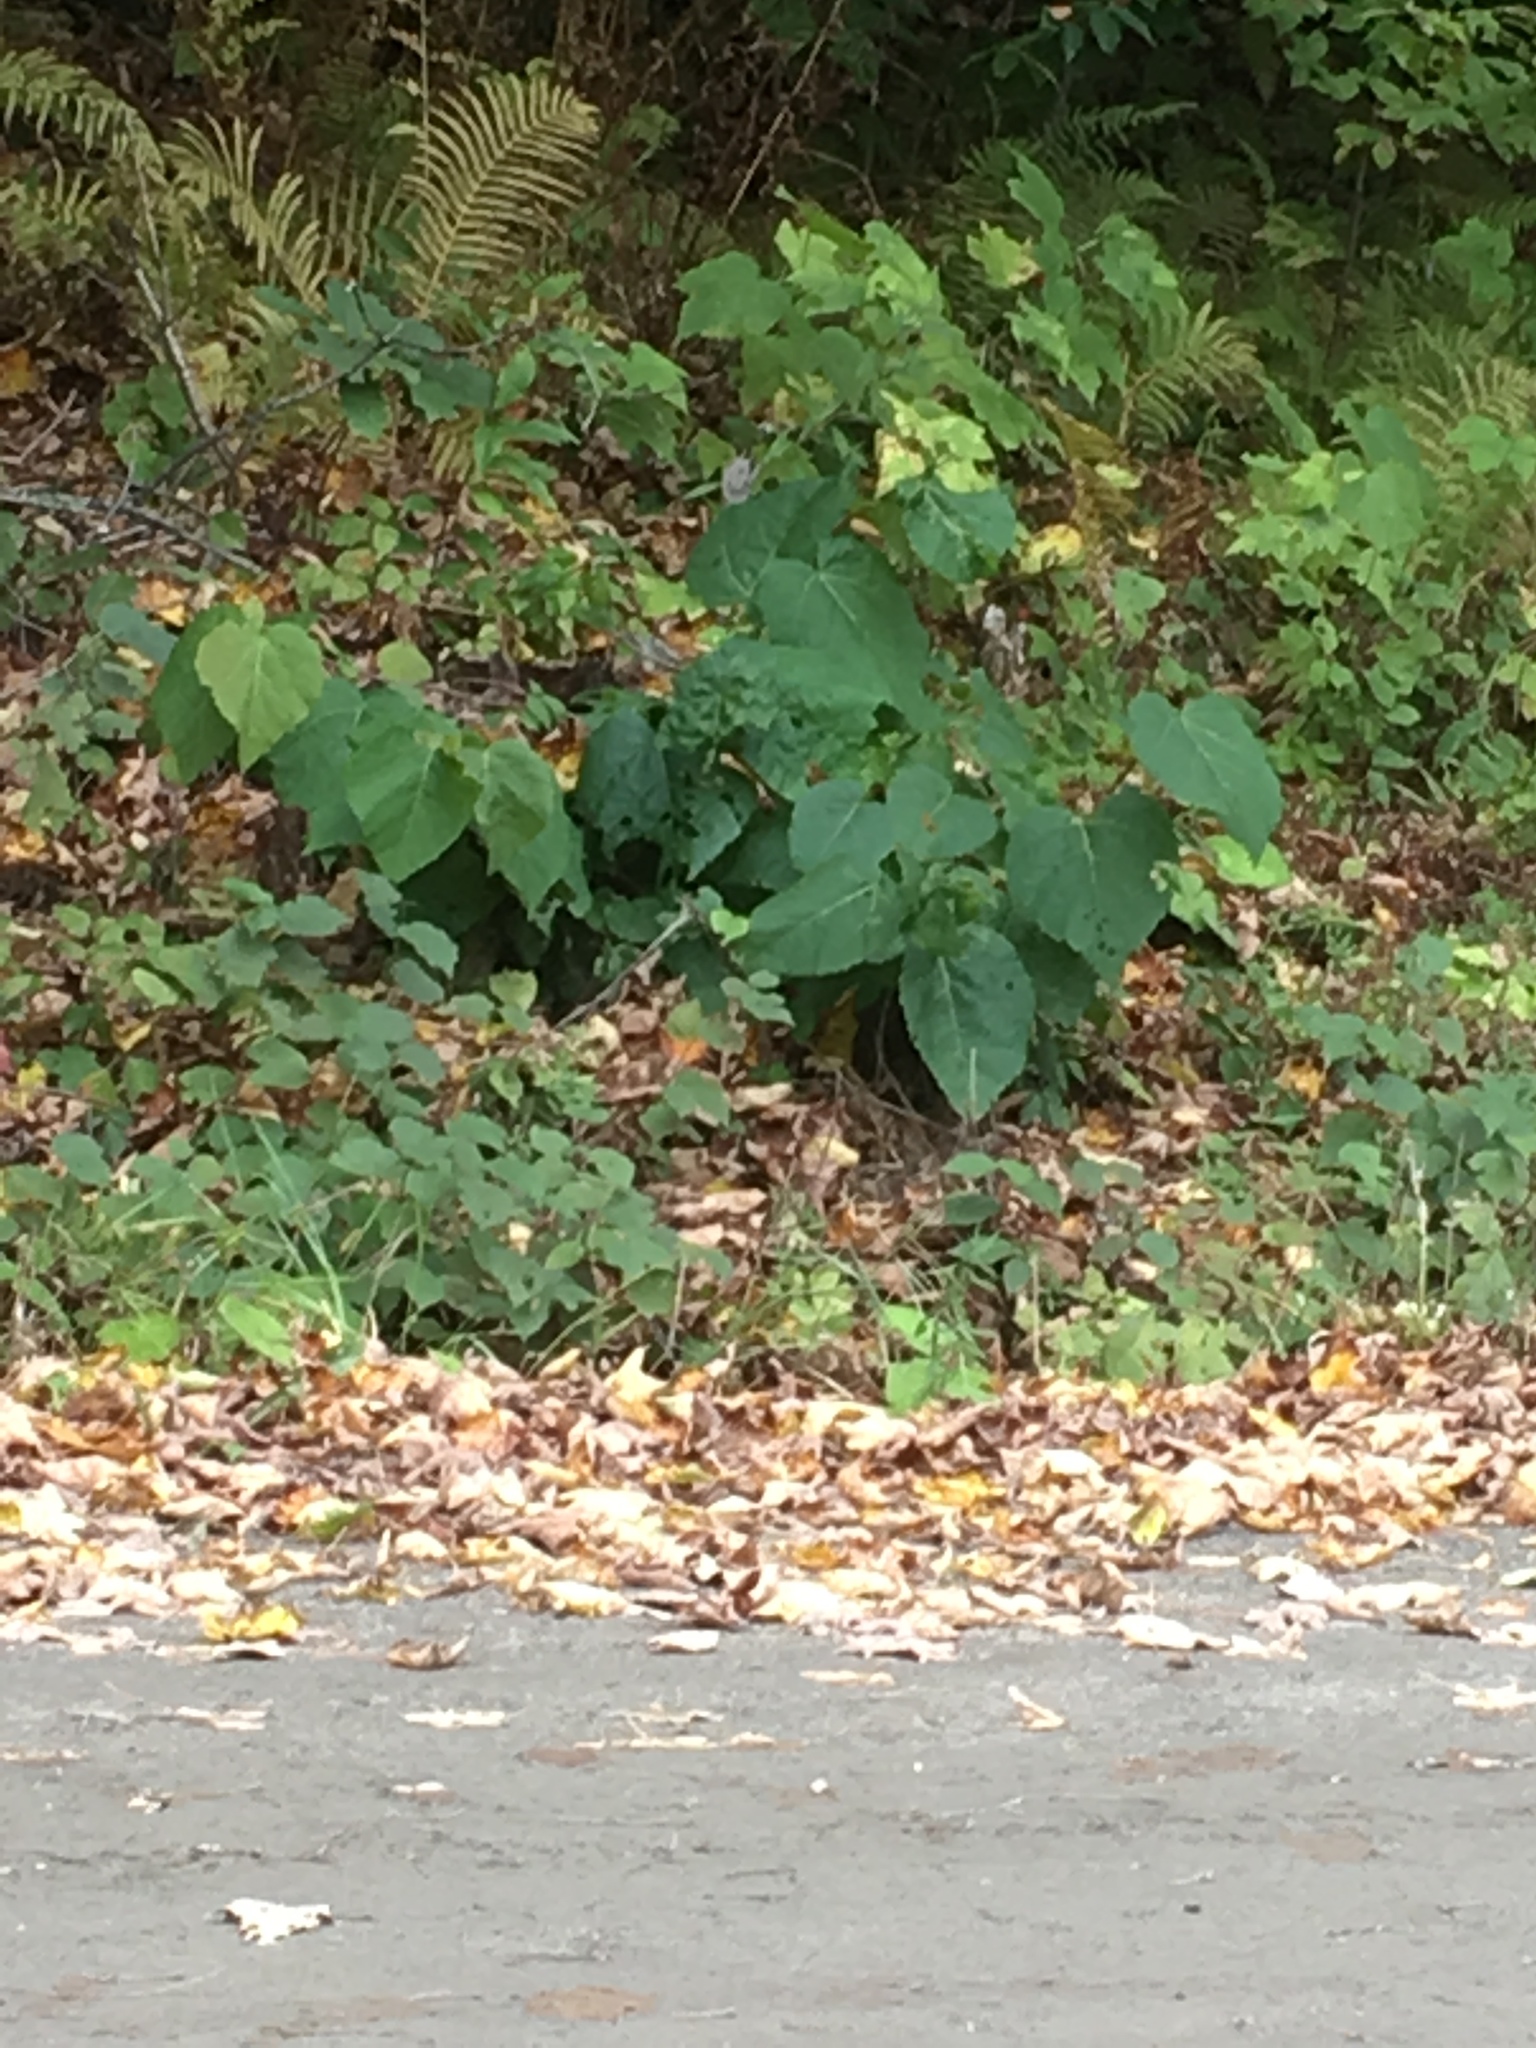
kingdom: Plantae
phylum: Tracheophyta
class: Magnoliopsida
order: Caryophyllales
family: Polygonaceae
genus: Reynoutria
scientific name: Reynoutria sachalinensis
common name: Giant knotweed
